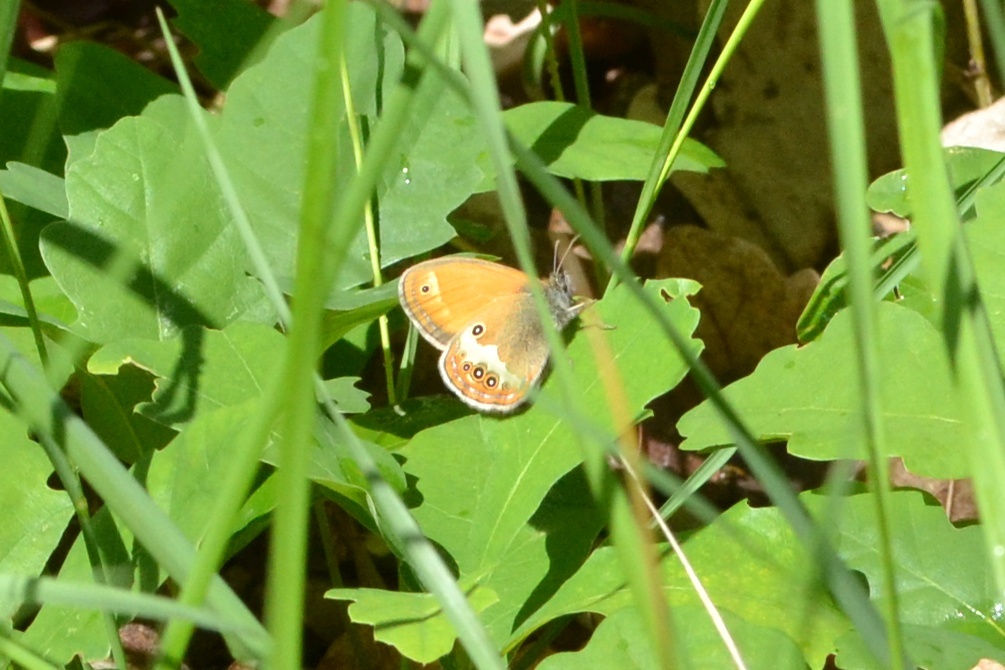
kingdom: Animalia
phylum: Arthropoda
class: Insecta
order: Lepidoptera
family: Nymphalidae
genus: Coenonympha
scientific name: Coenonympha arcania
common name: Pearly heath
